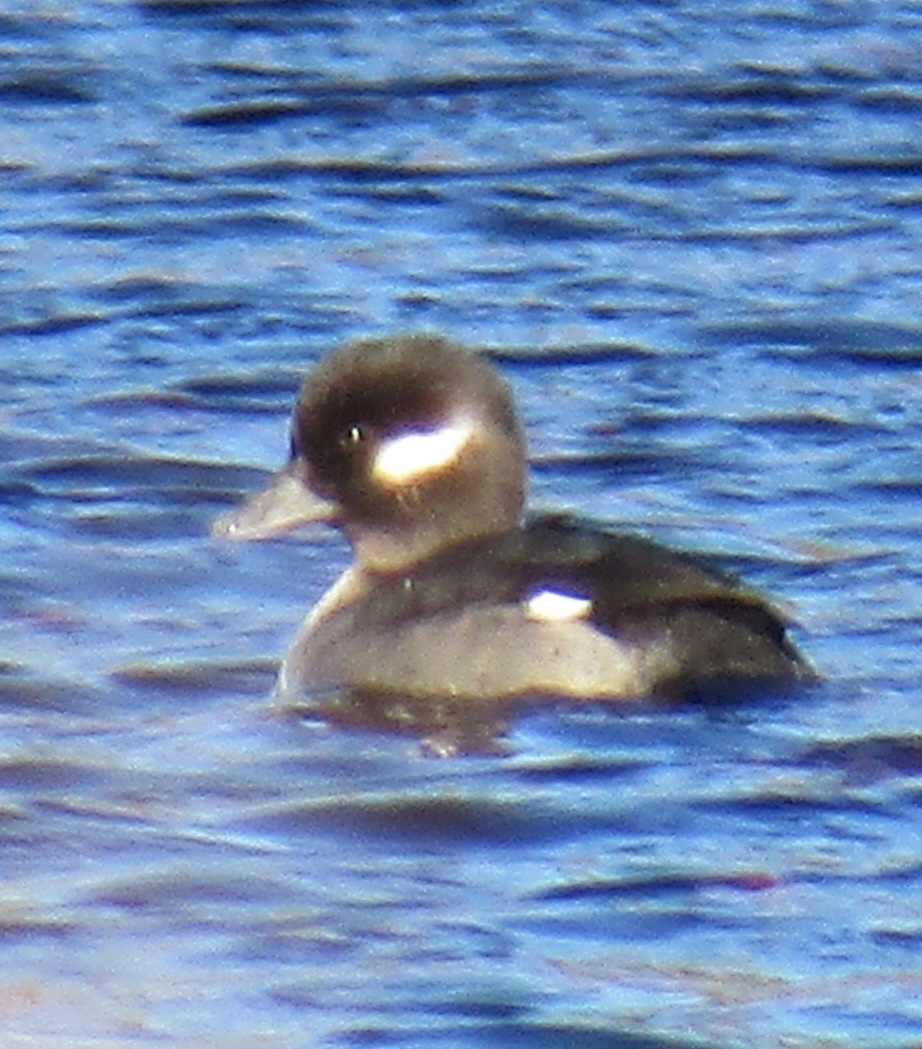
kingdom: Animalia
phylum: Chordata
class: Aves
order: Anseriformes
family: Anatidae
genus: Bucephala
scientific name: Bucephala albeola
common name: Bufflehead
